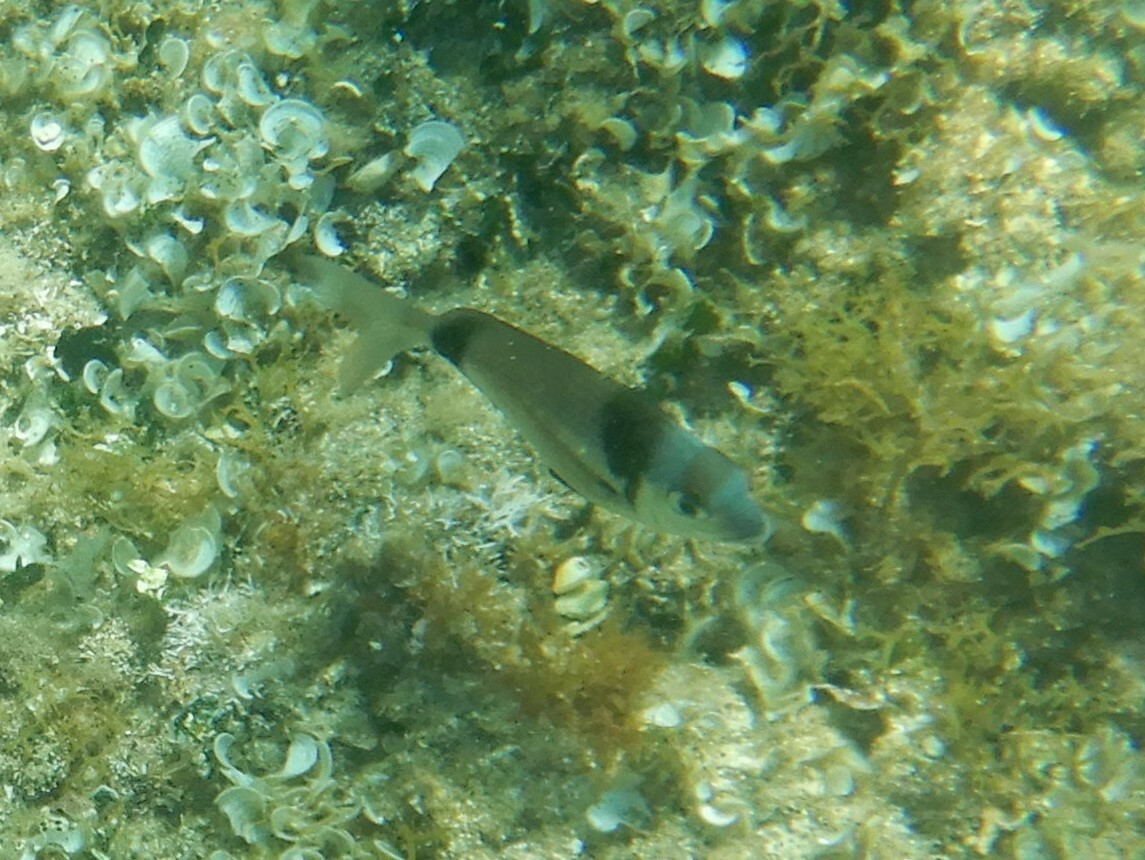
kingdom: Animalia
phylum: Chordata
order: Perciformes
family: Sparidae
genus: Diplodus
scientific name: Diplodus vulgaris
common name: Common two-banded seabream
